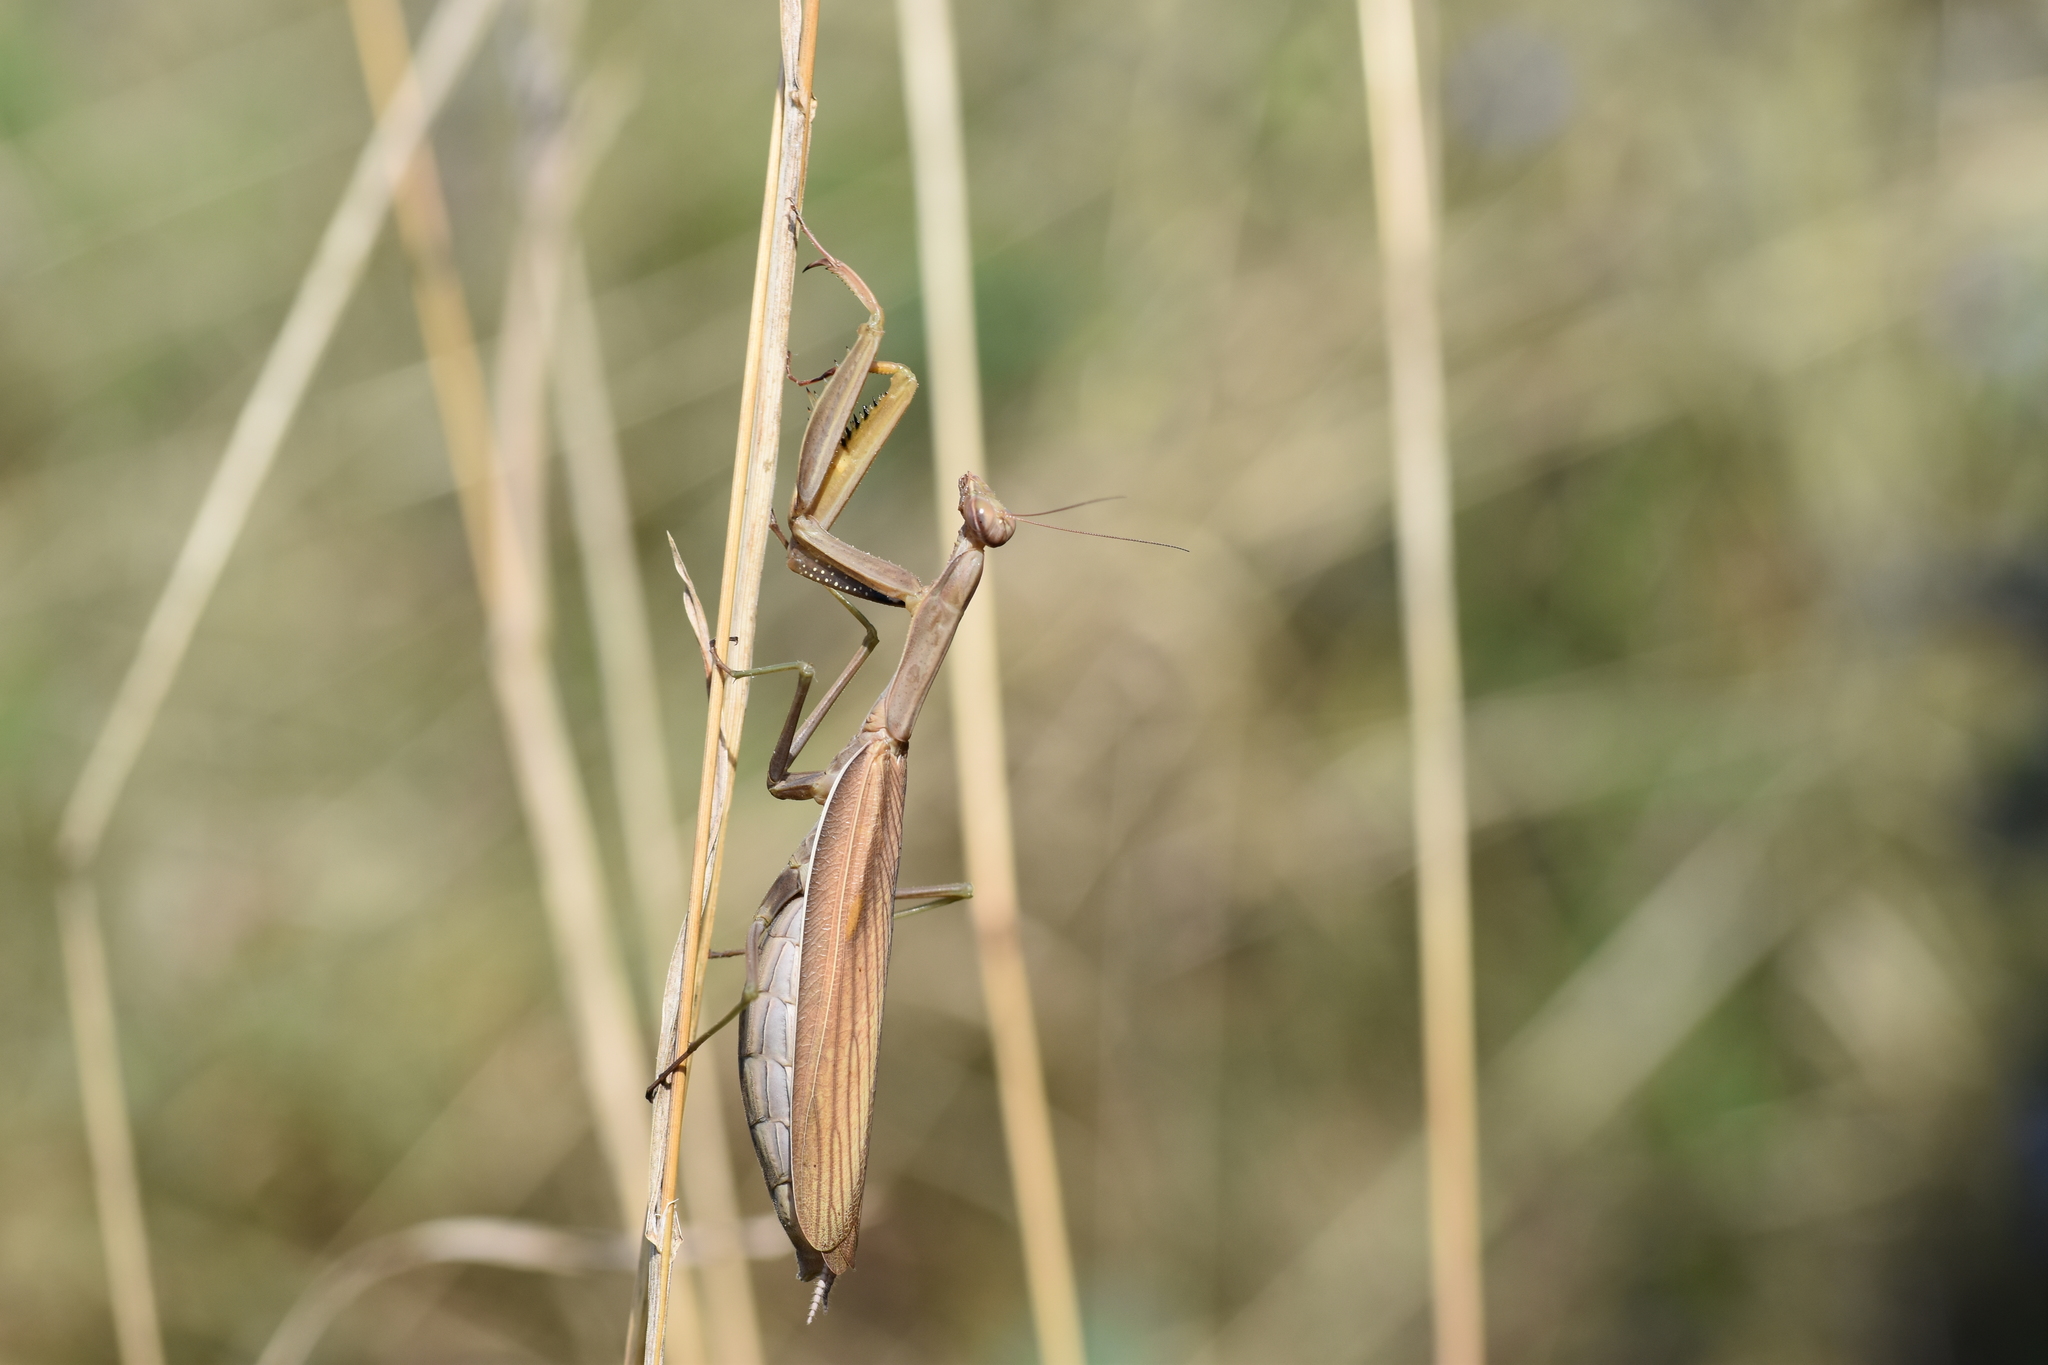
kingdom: Animalia
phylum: Arthropoda
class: Insecta
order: Mantodea
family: Mantidae
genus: Mantis
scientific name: Mantis religiosa
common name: Praying mantis
